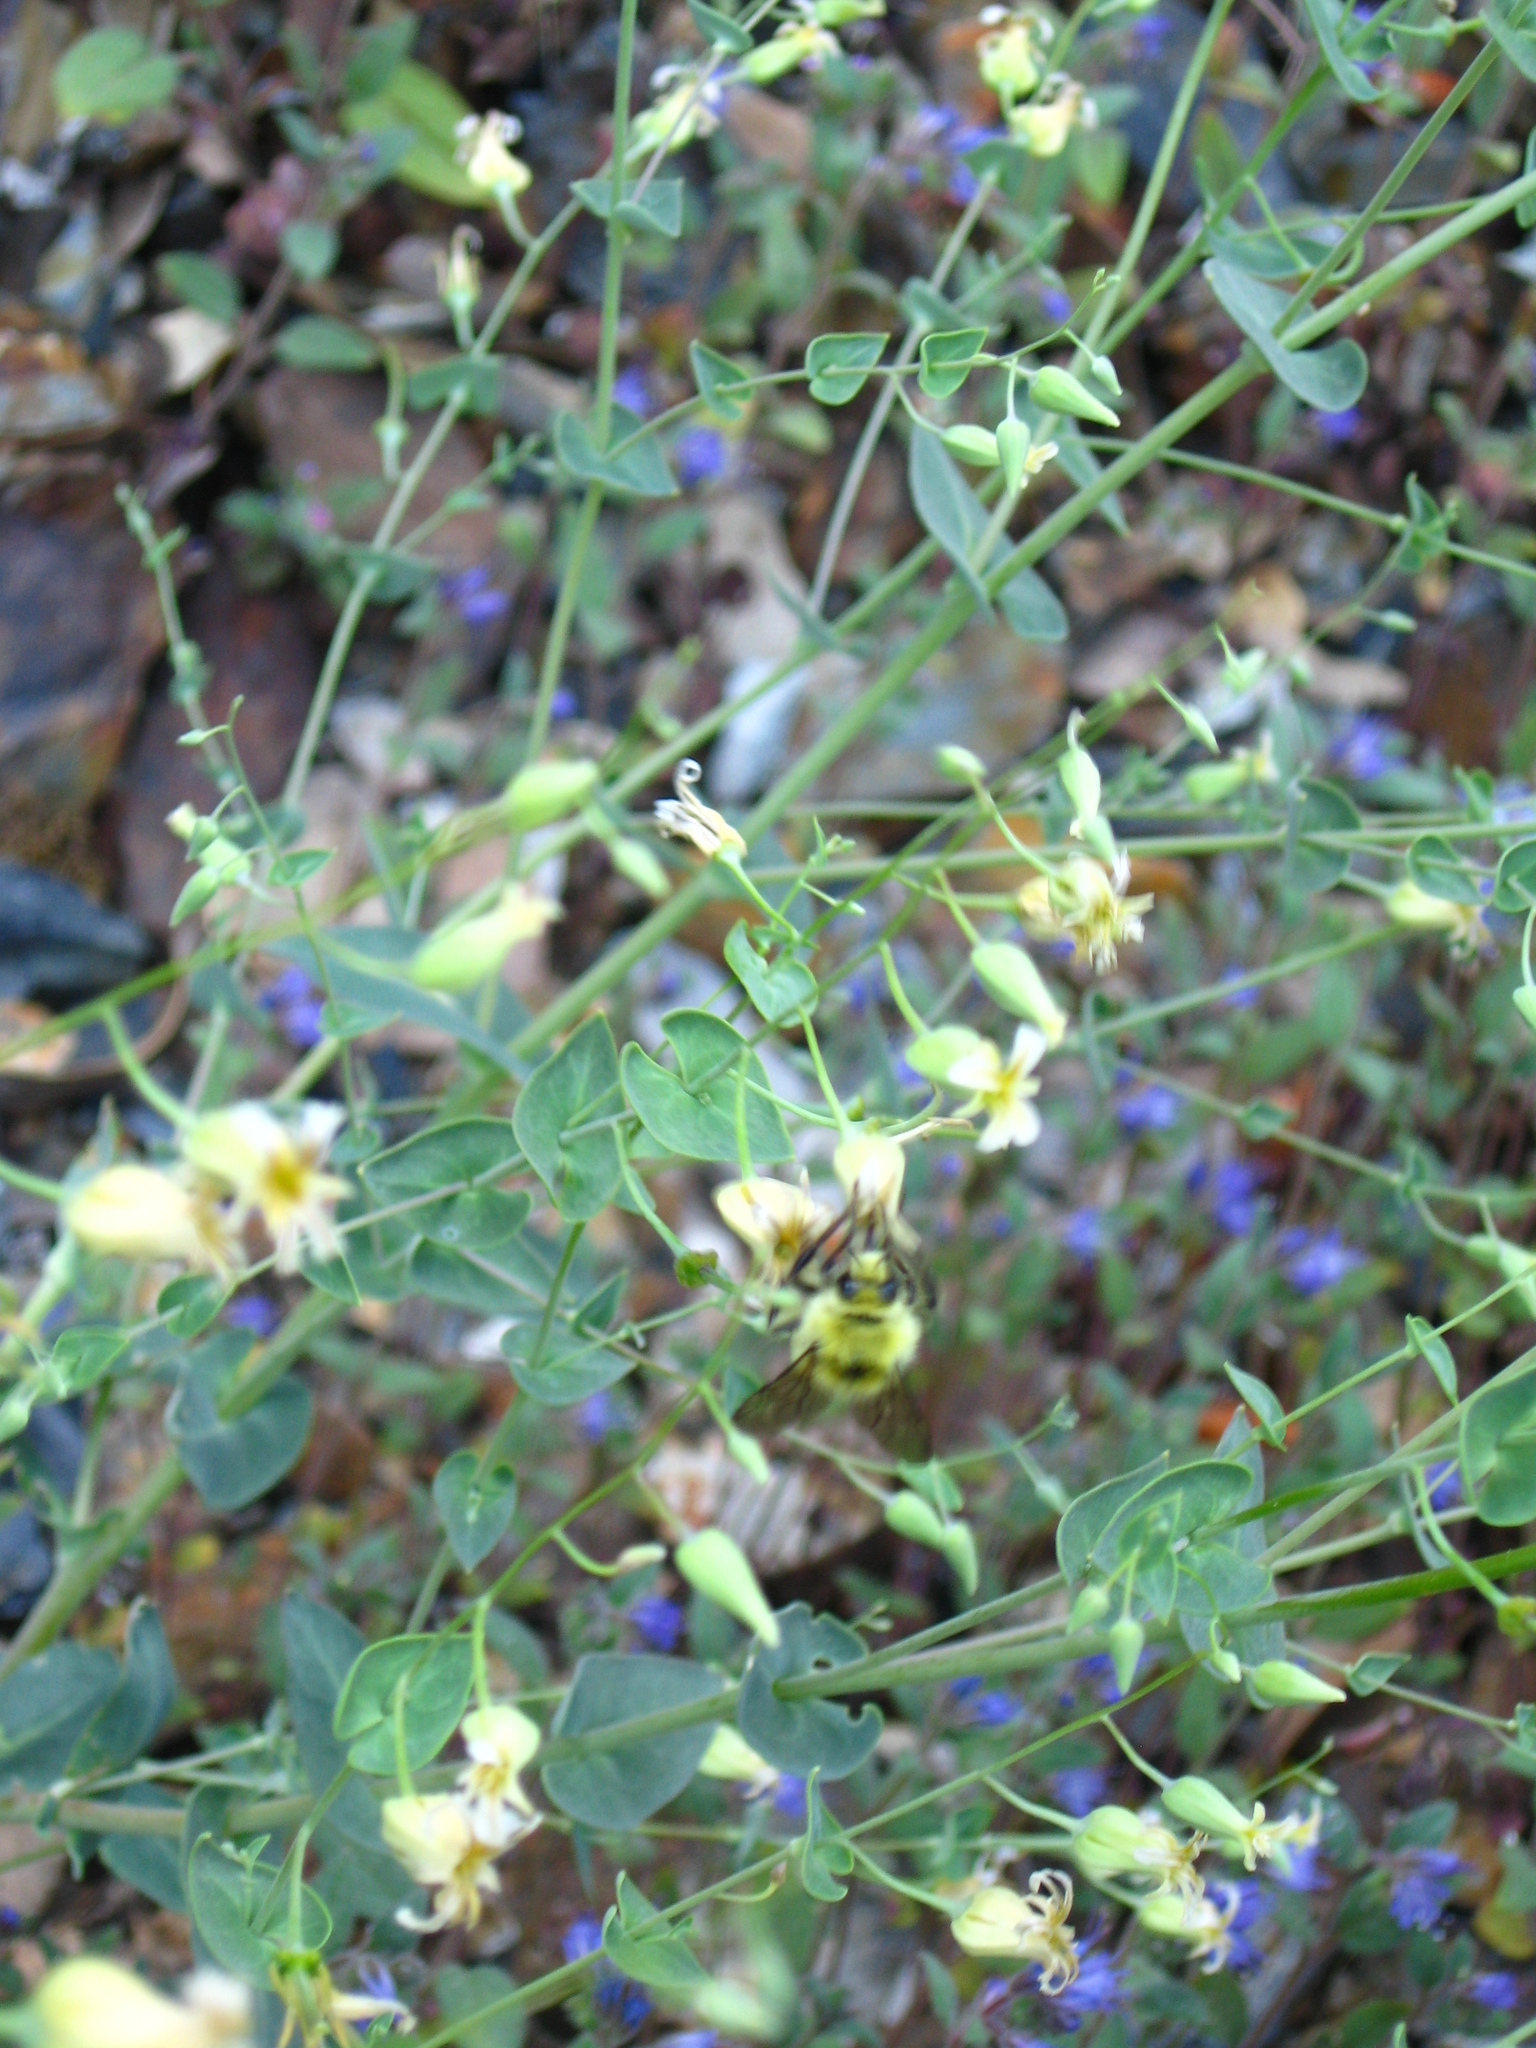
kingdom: Plantae
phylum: Tracheophyta
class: Magnoliopsida
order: Brassicales
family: Brassicaceae
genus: Streptanthus
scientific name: Streptanthus tortuosus
